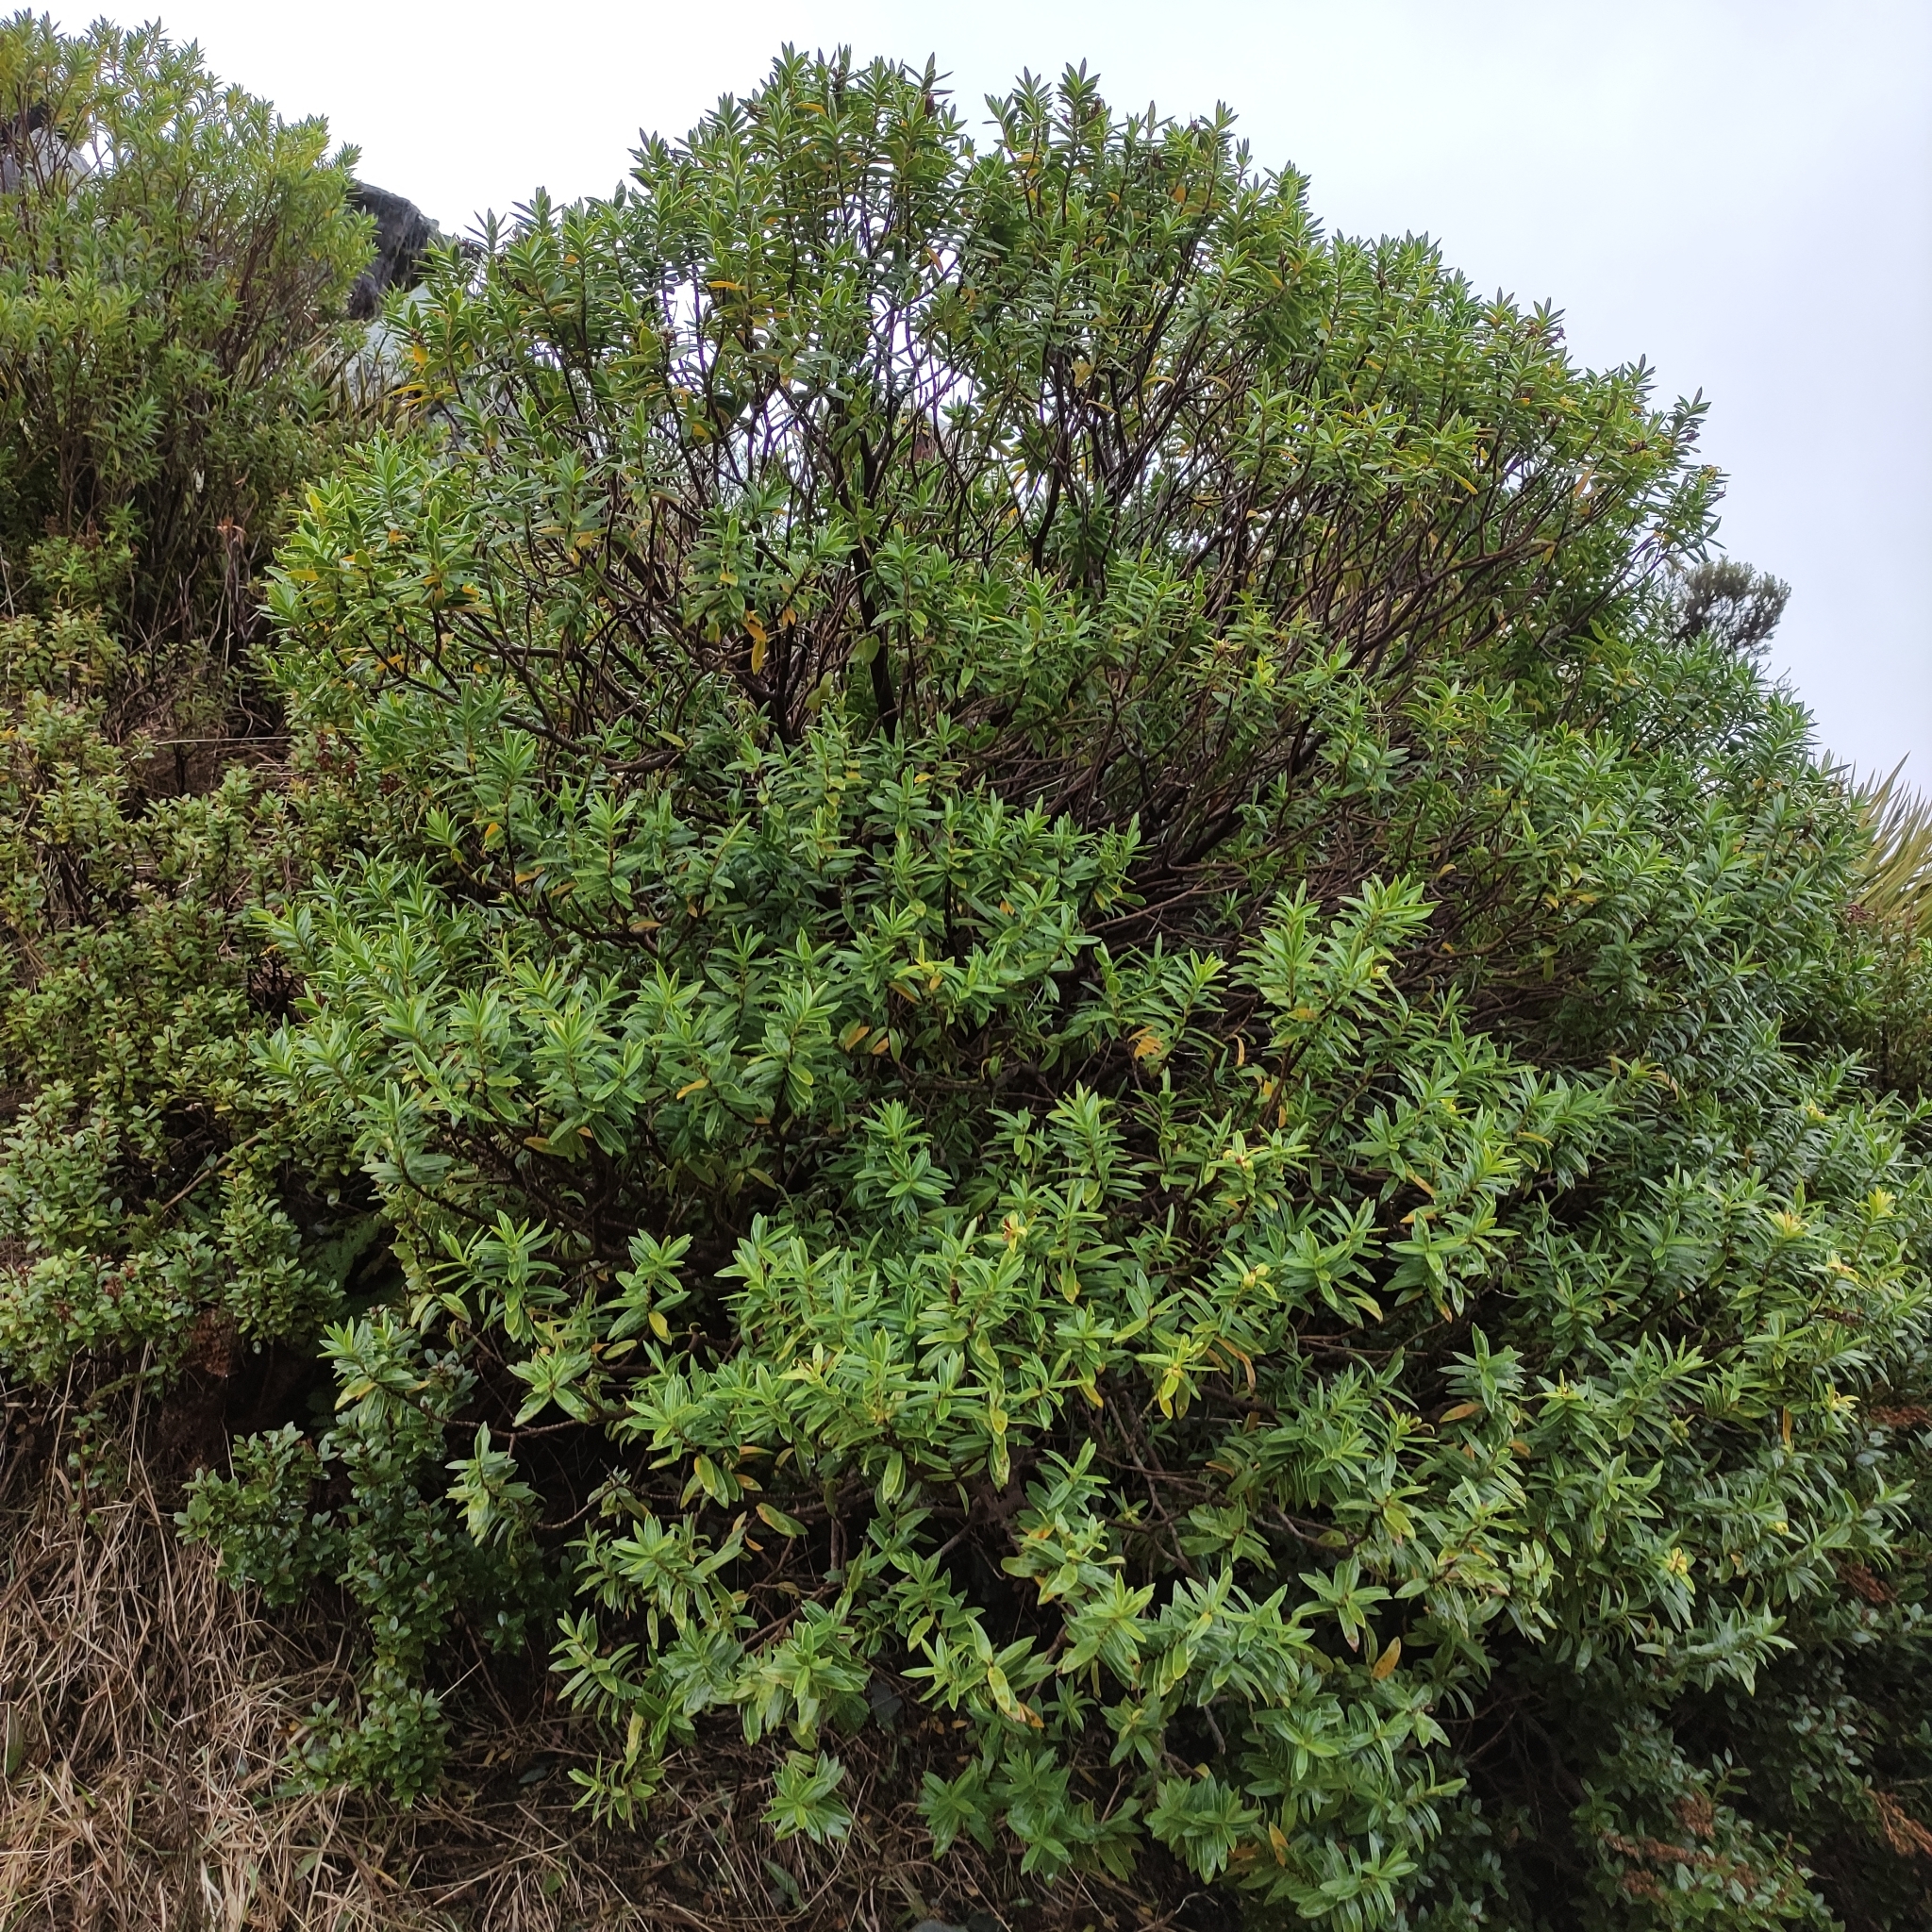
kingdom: Plantae
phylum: Tracheophyta
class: Magnoliopsida
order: Lamiales
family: Plantaginaceae
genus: Veronica
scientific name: Veronica subalpina
